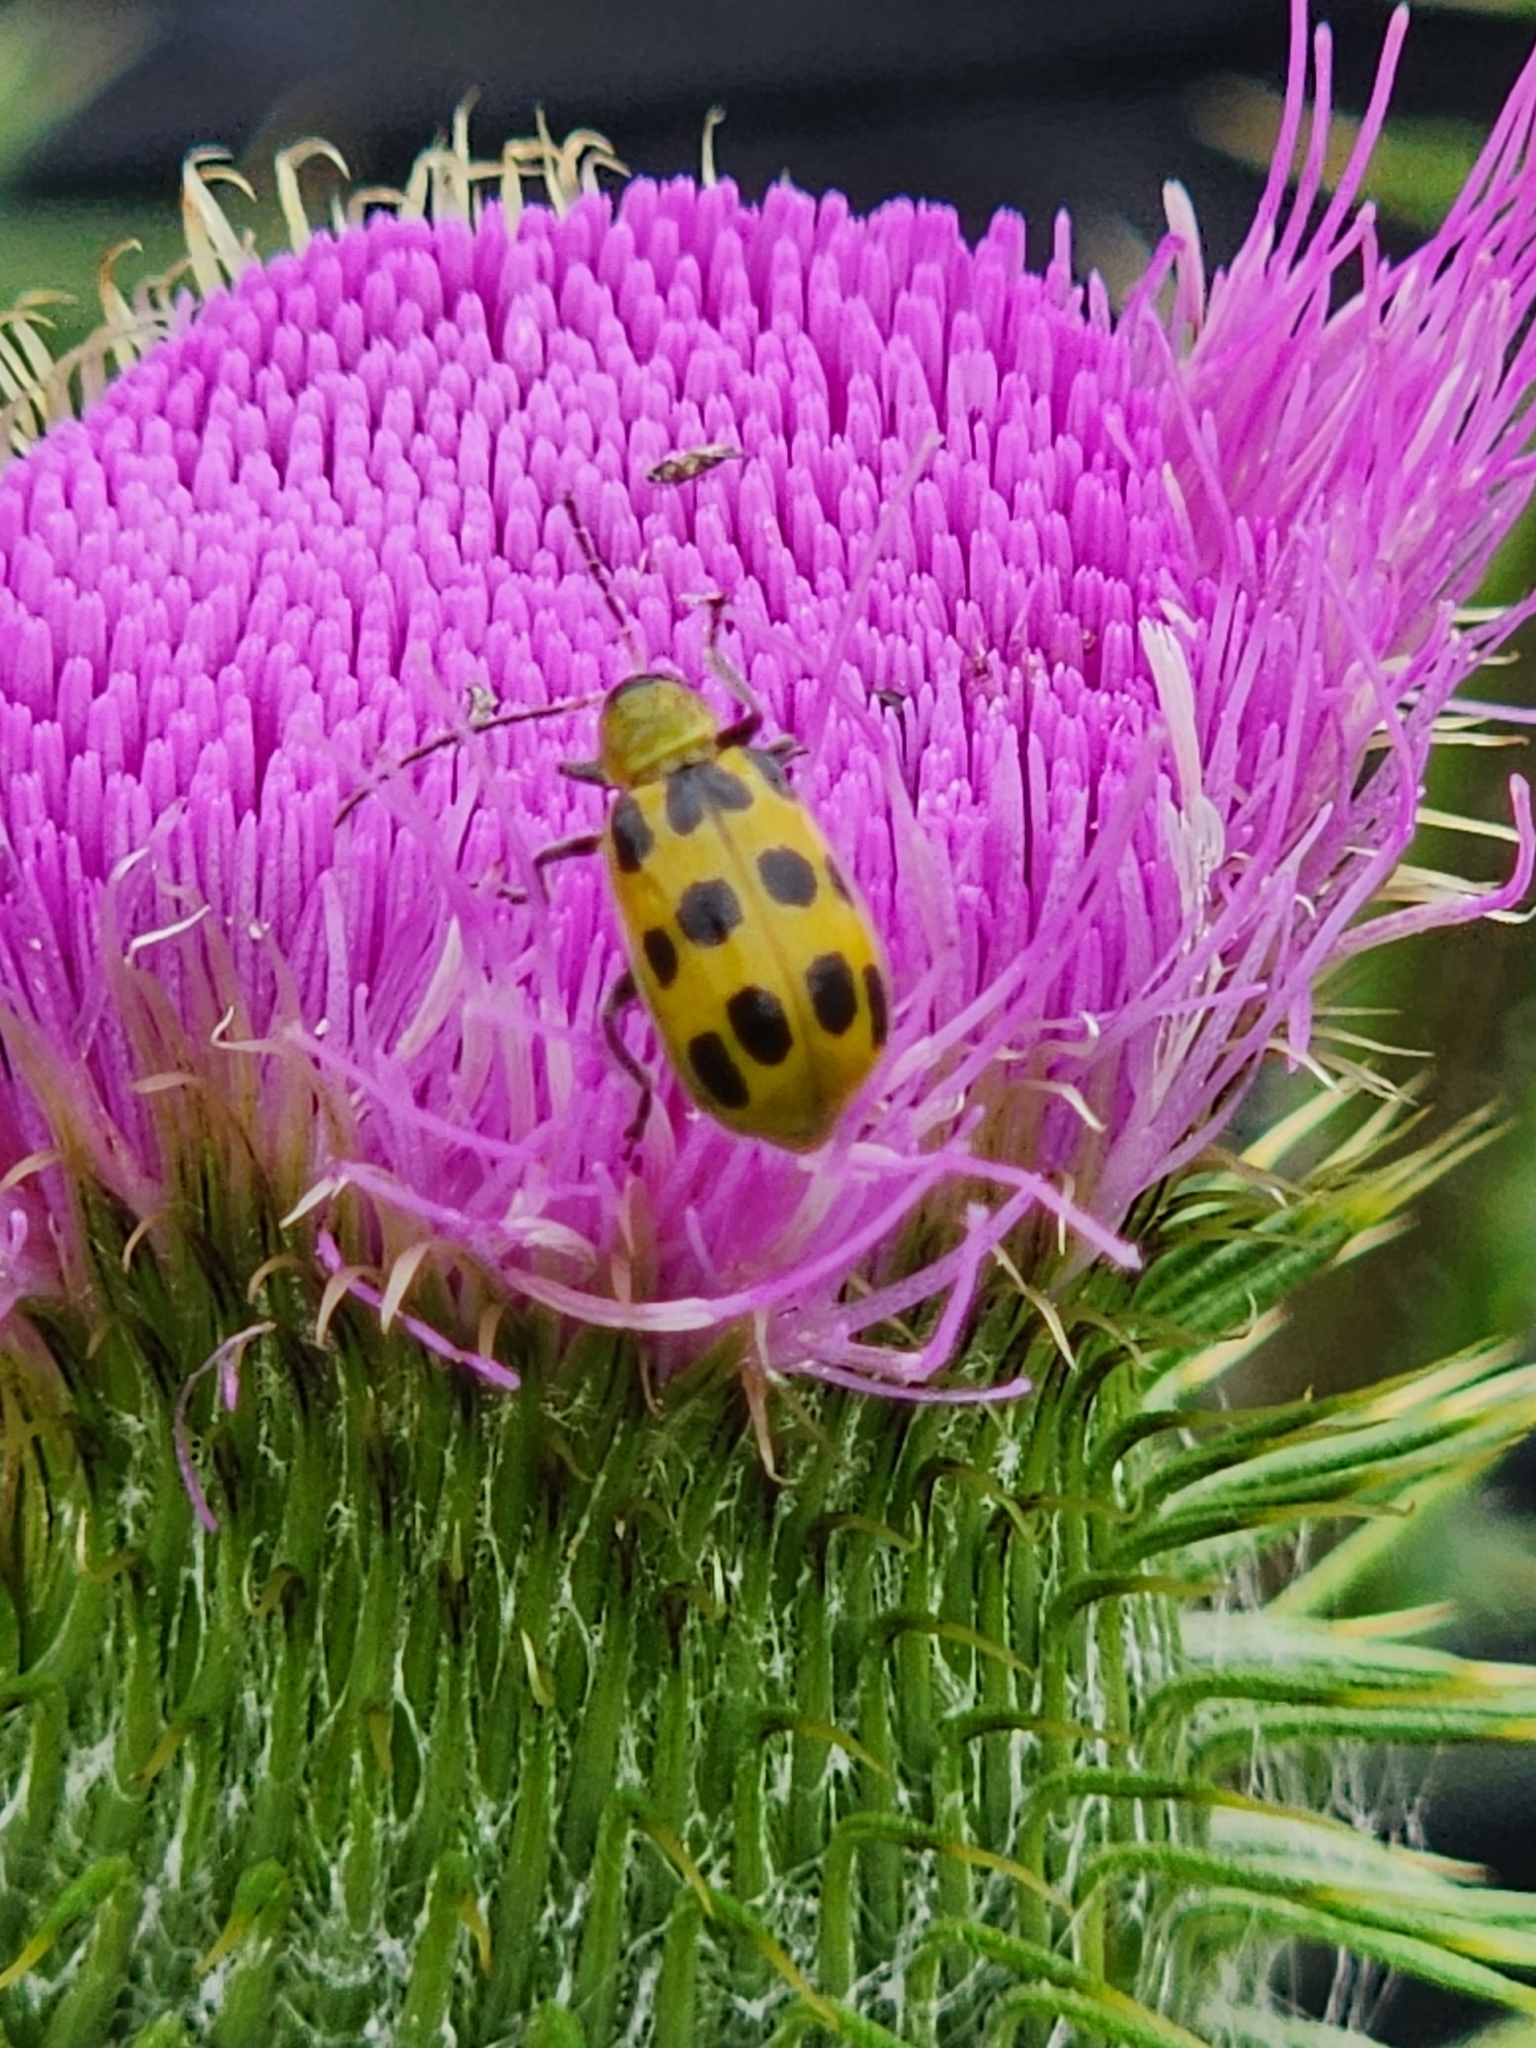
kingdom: Animalia
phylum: Arthropoda
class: Insecta
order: Coleoptera
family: Chrysomelidae
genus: Diabrotica
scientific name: Diabrotica undecimpunctata
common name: Spotted cucumber beetle
